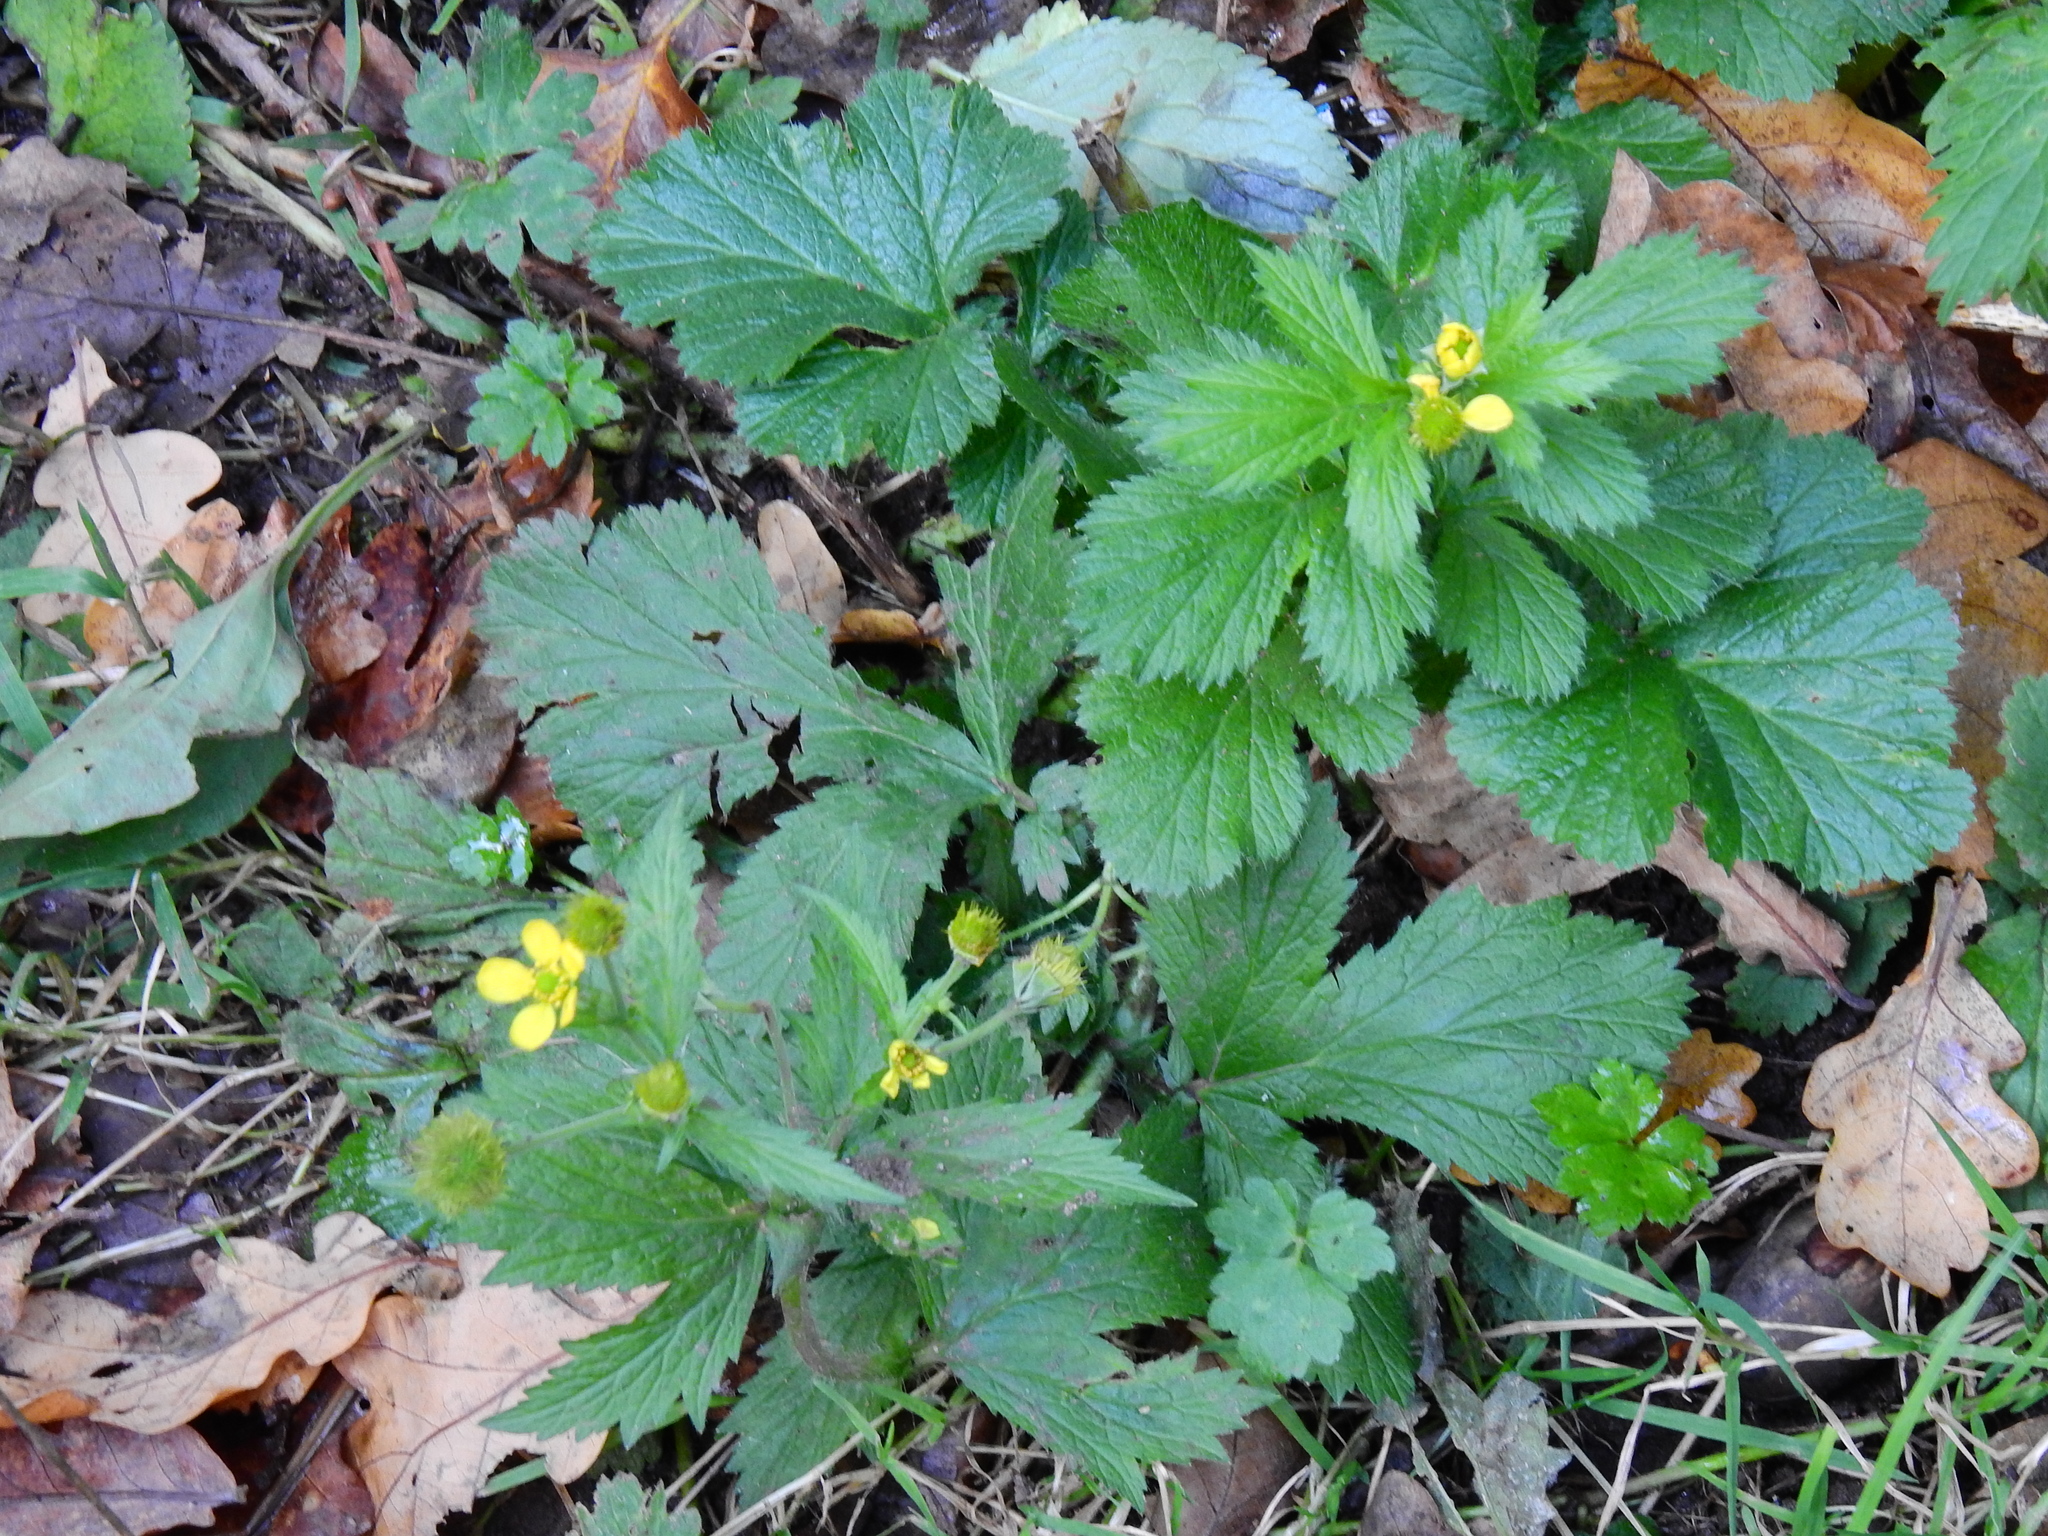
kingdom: Plantae
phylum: Tracheophyta
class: Magnoliopsida
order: Rosales
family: Rosaceae
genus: Geum
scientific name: Geum macrophyllum
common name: Large-leaved avens
